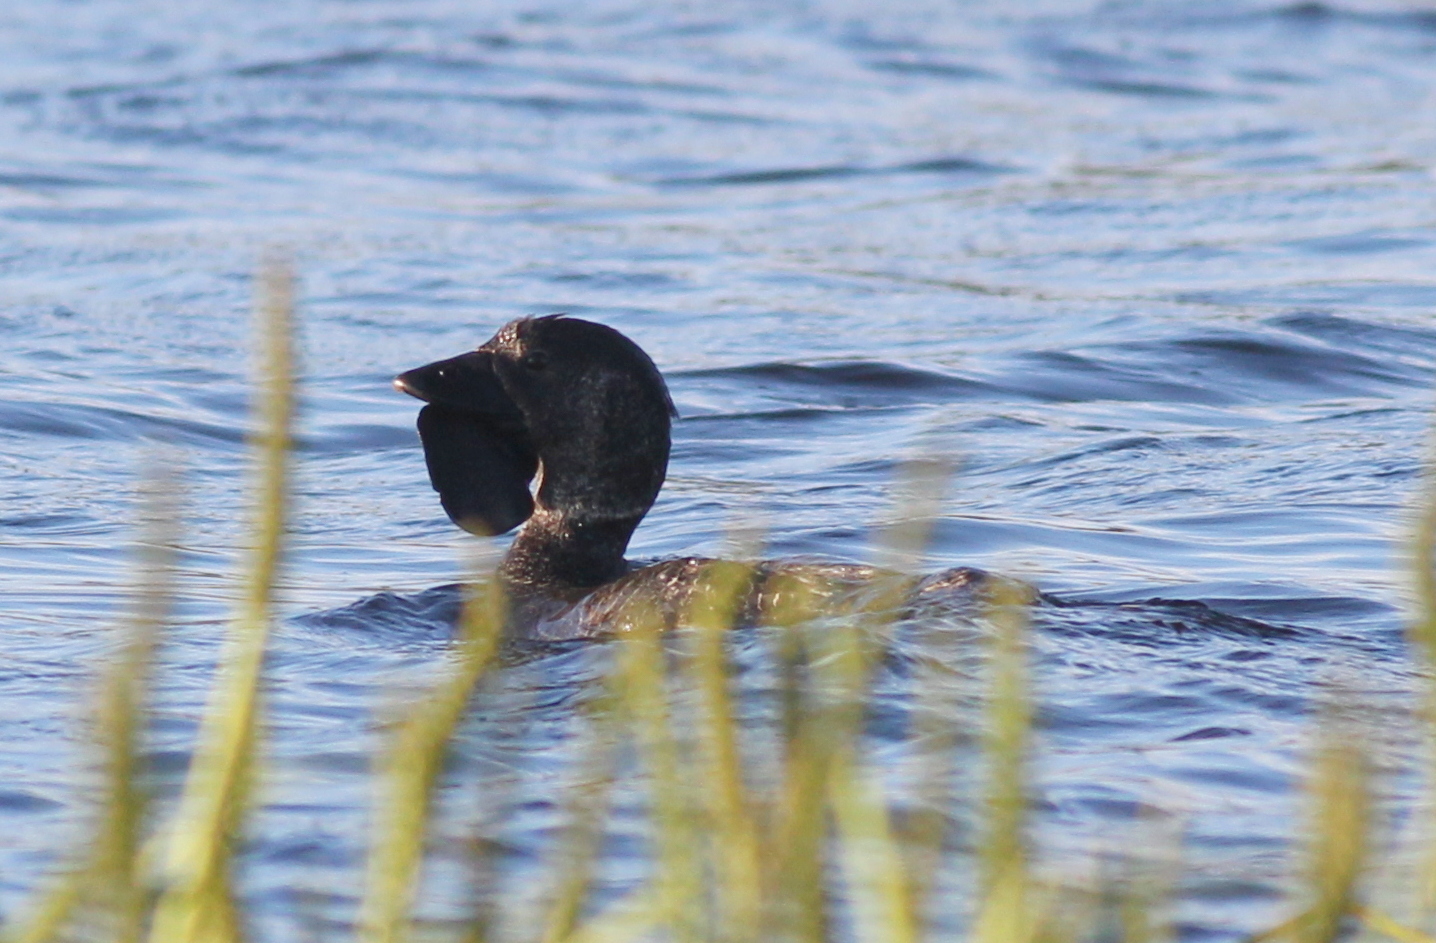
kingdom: Animalia
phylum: Chordata
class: Aves
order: Anseriformes
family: Anatidae
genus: Biziura
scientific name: Biziura lobata
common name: Musk duck
